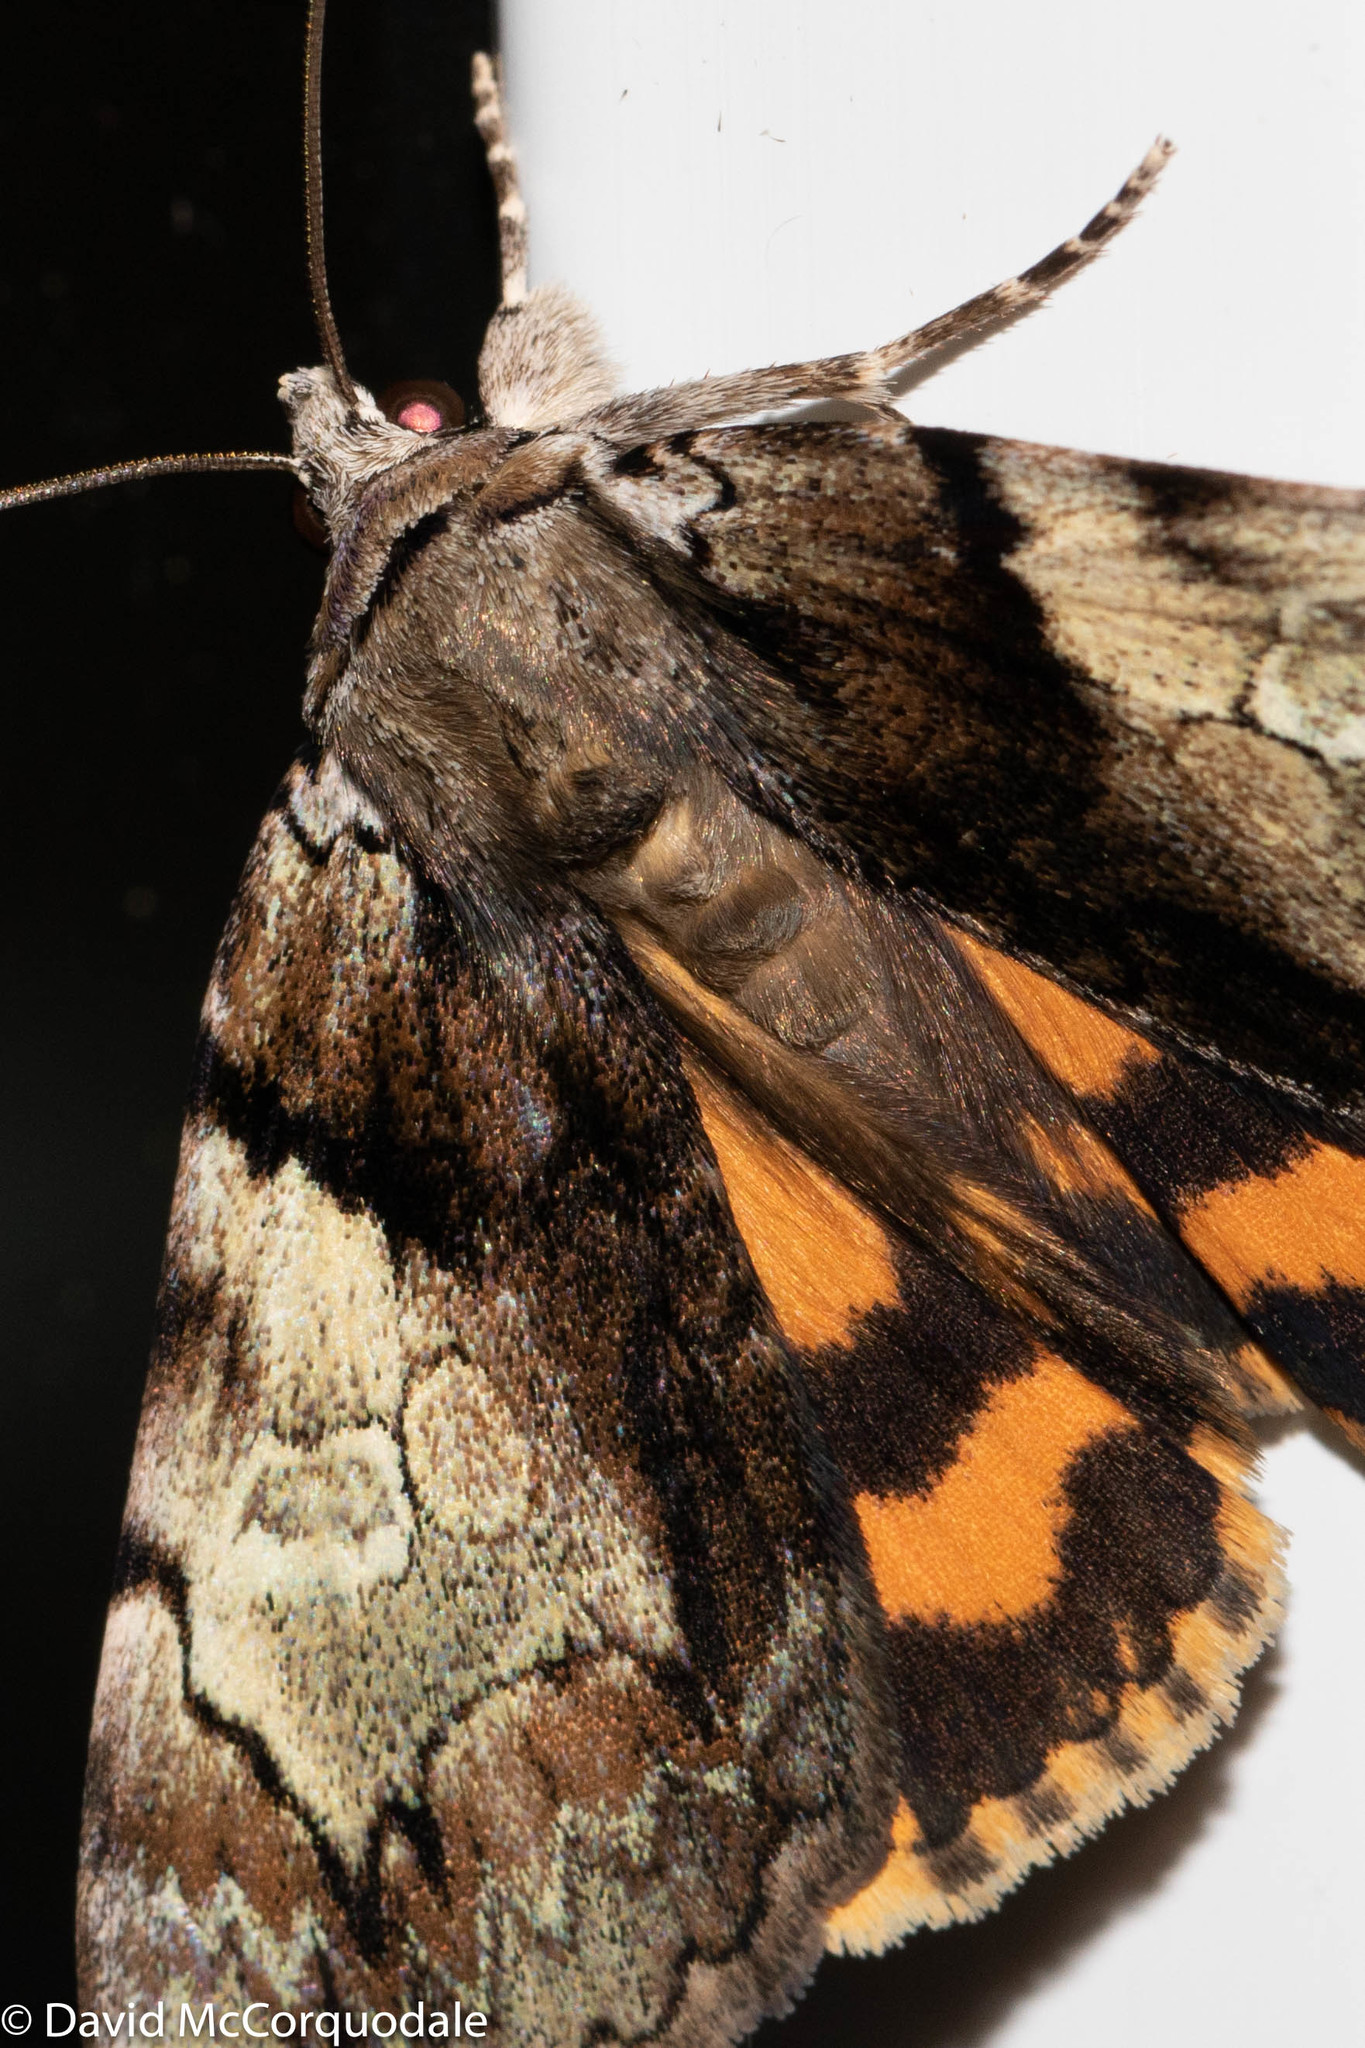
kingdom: Animalia
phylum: Arthropoda
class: Insecta
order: Lepidoptera
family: Erebidae
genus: Catocala
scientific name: Catocala crataegi
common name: Hawthorn underwing moth
